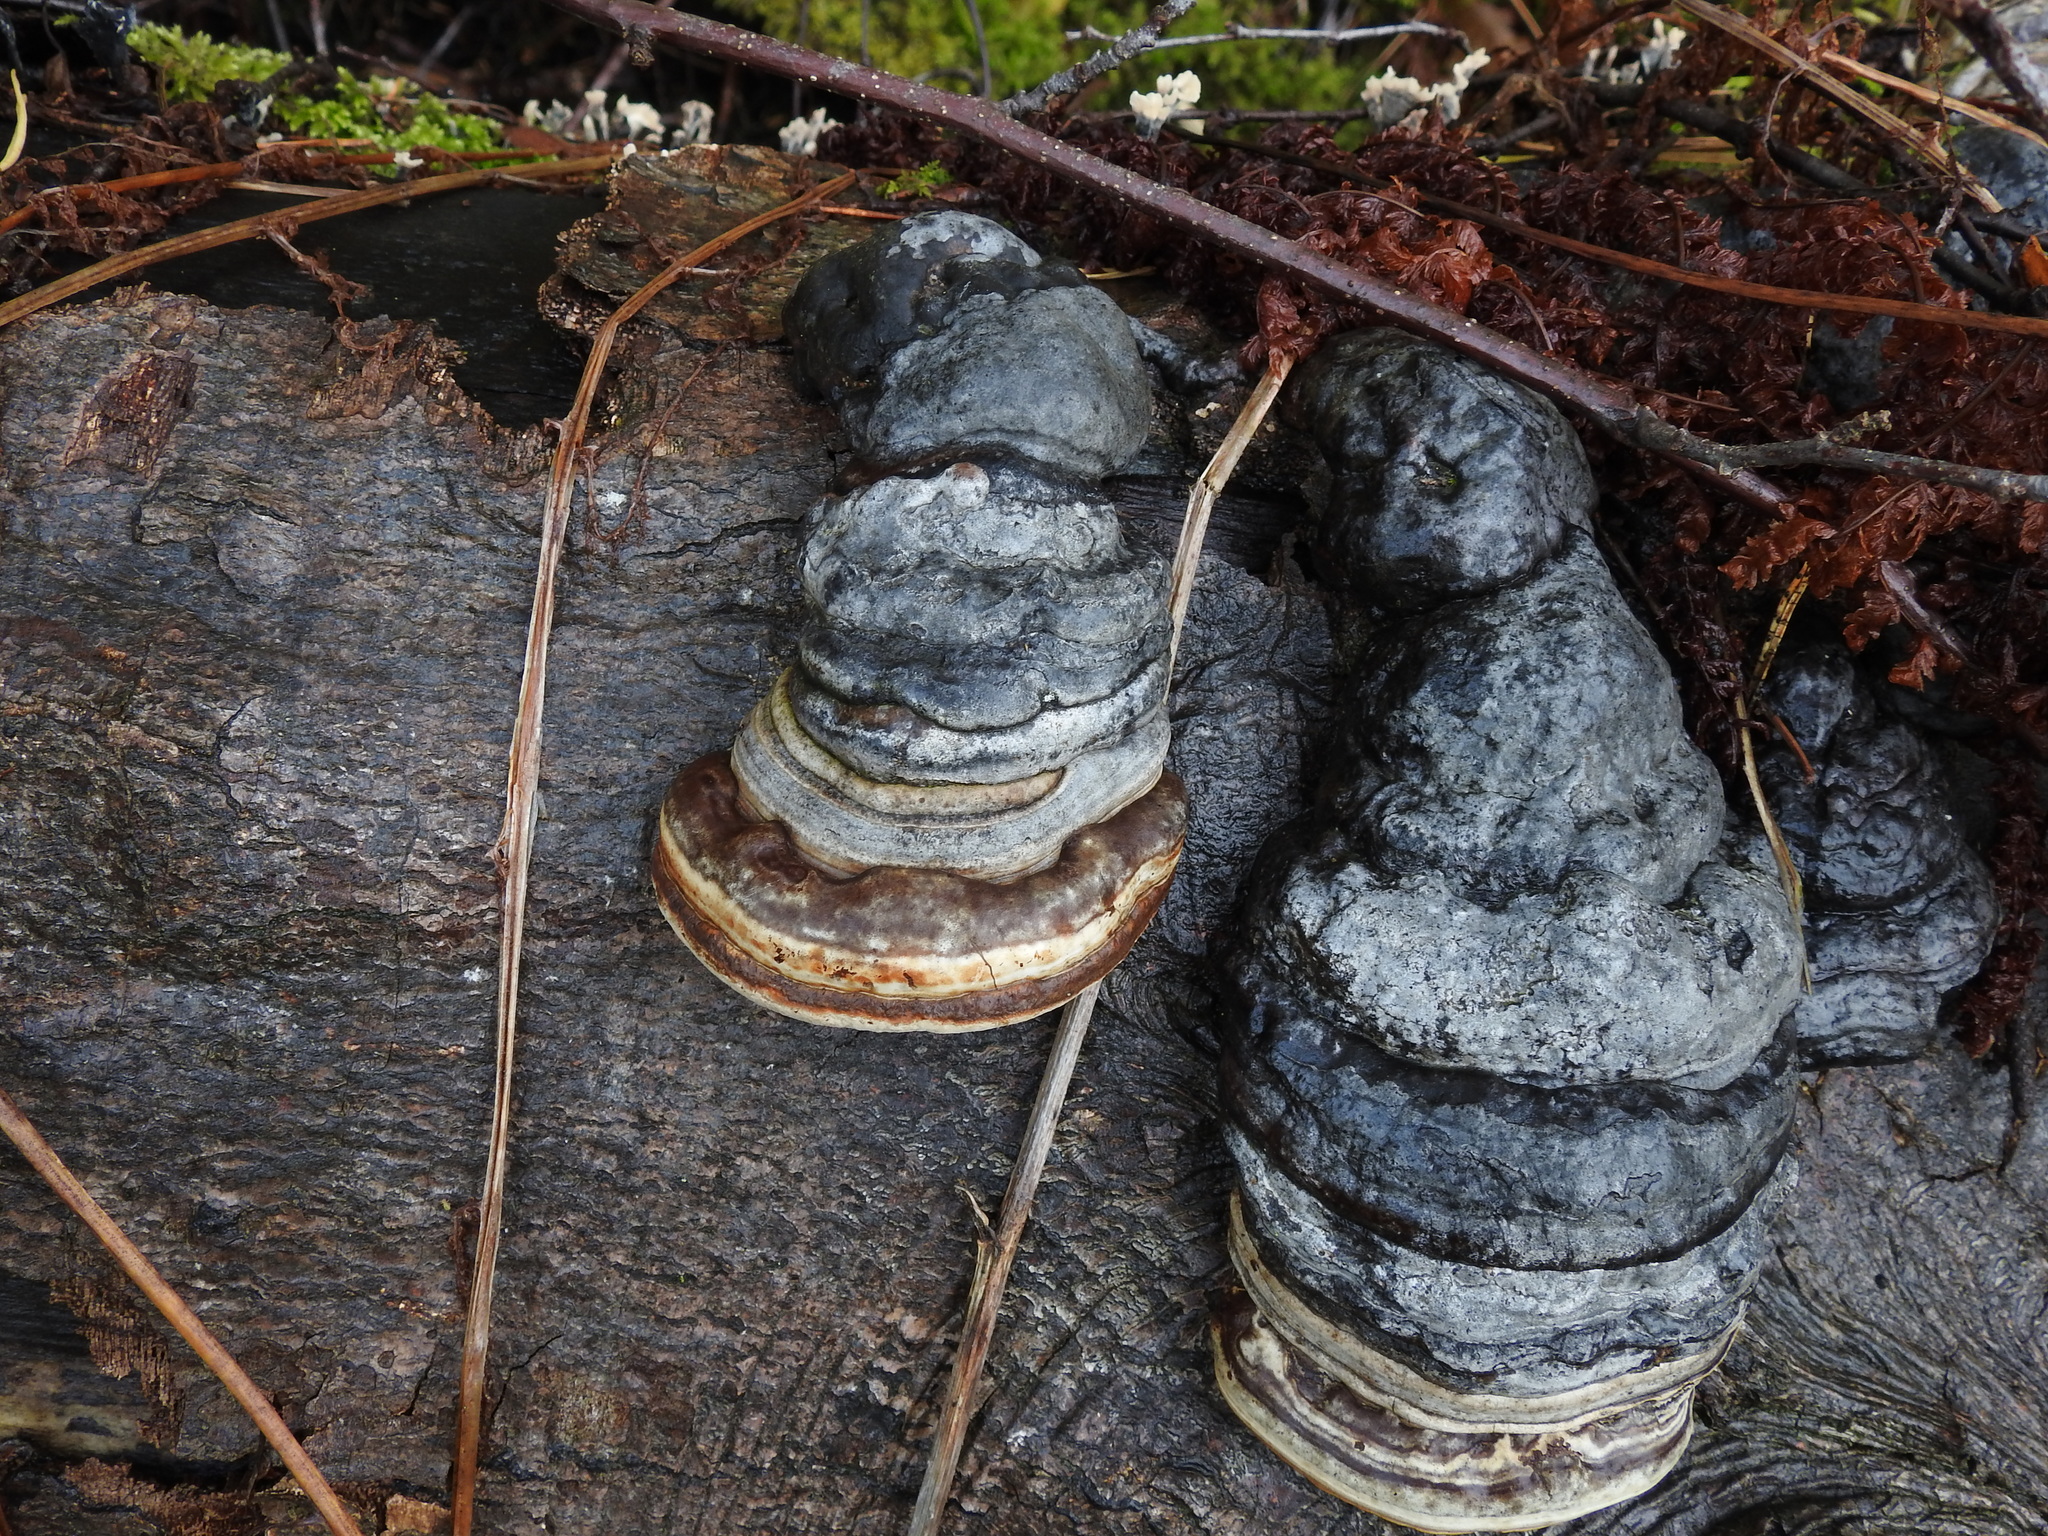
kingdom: Fungi
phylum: Basidiomycota
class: Agaricomycetes
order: Polyporales
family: Polyporaceae
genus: Fomes
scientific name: Fomes fomentarius
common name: Hoof fungus
